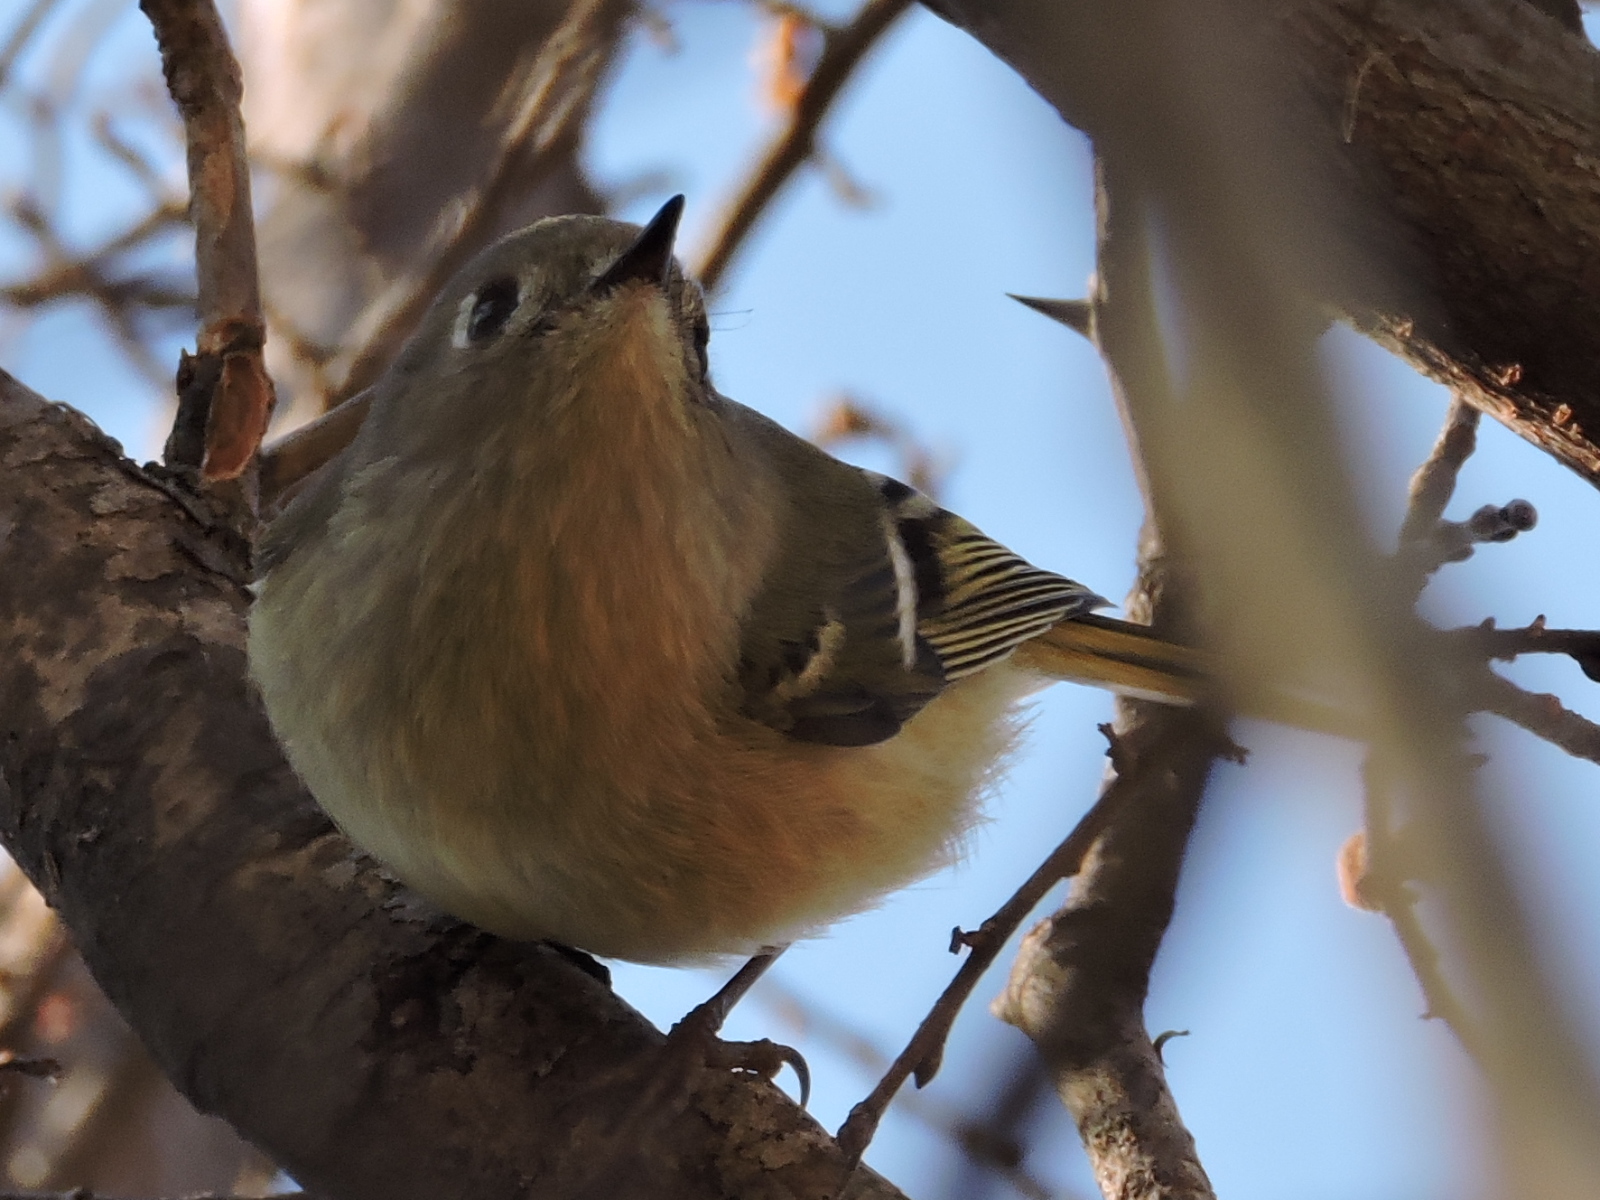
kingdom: Animalia
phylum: Chordata
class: Aves
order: Passeriformes
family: Regulidae
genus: Regulus
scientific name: Regulus calendula
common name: Ruby-crowned kinglet
